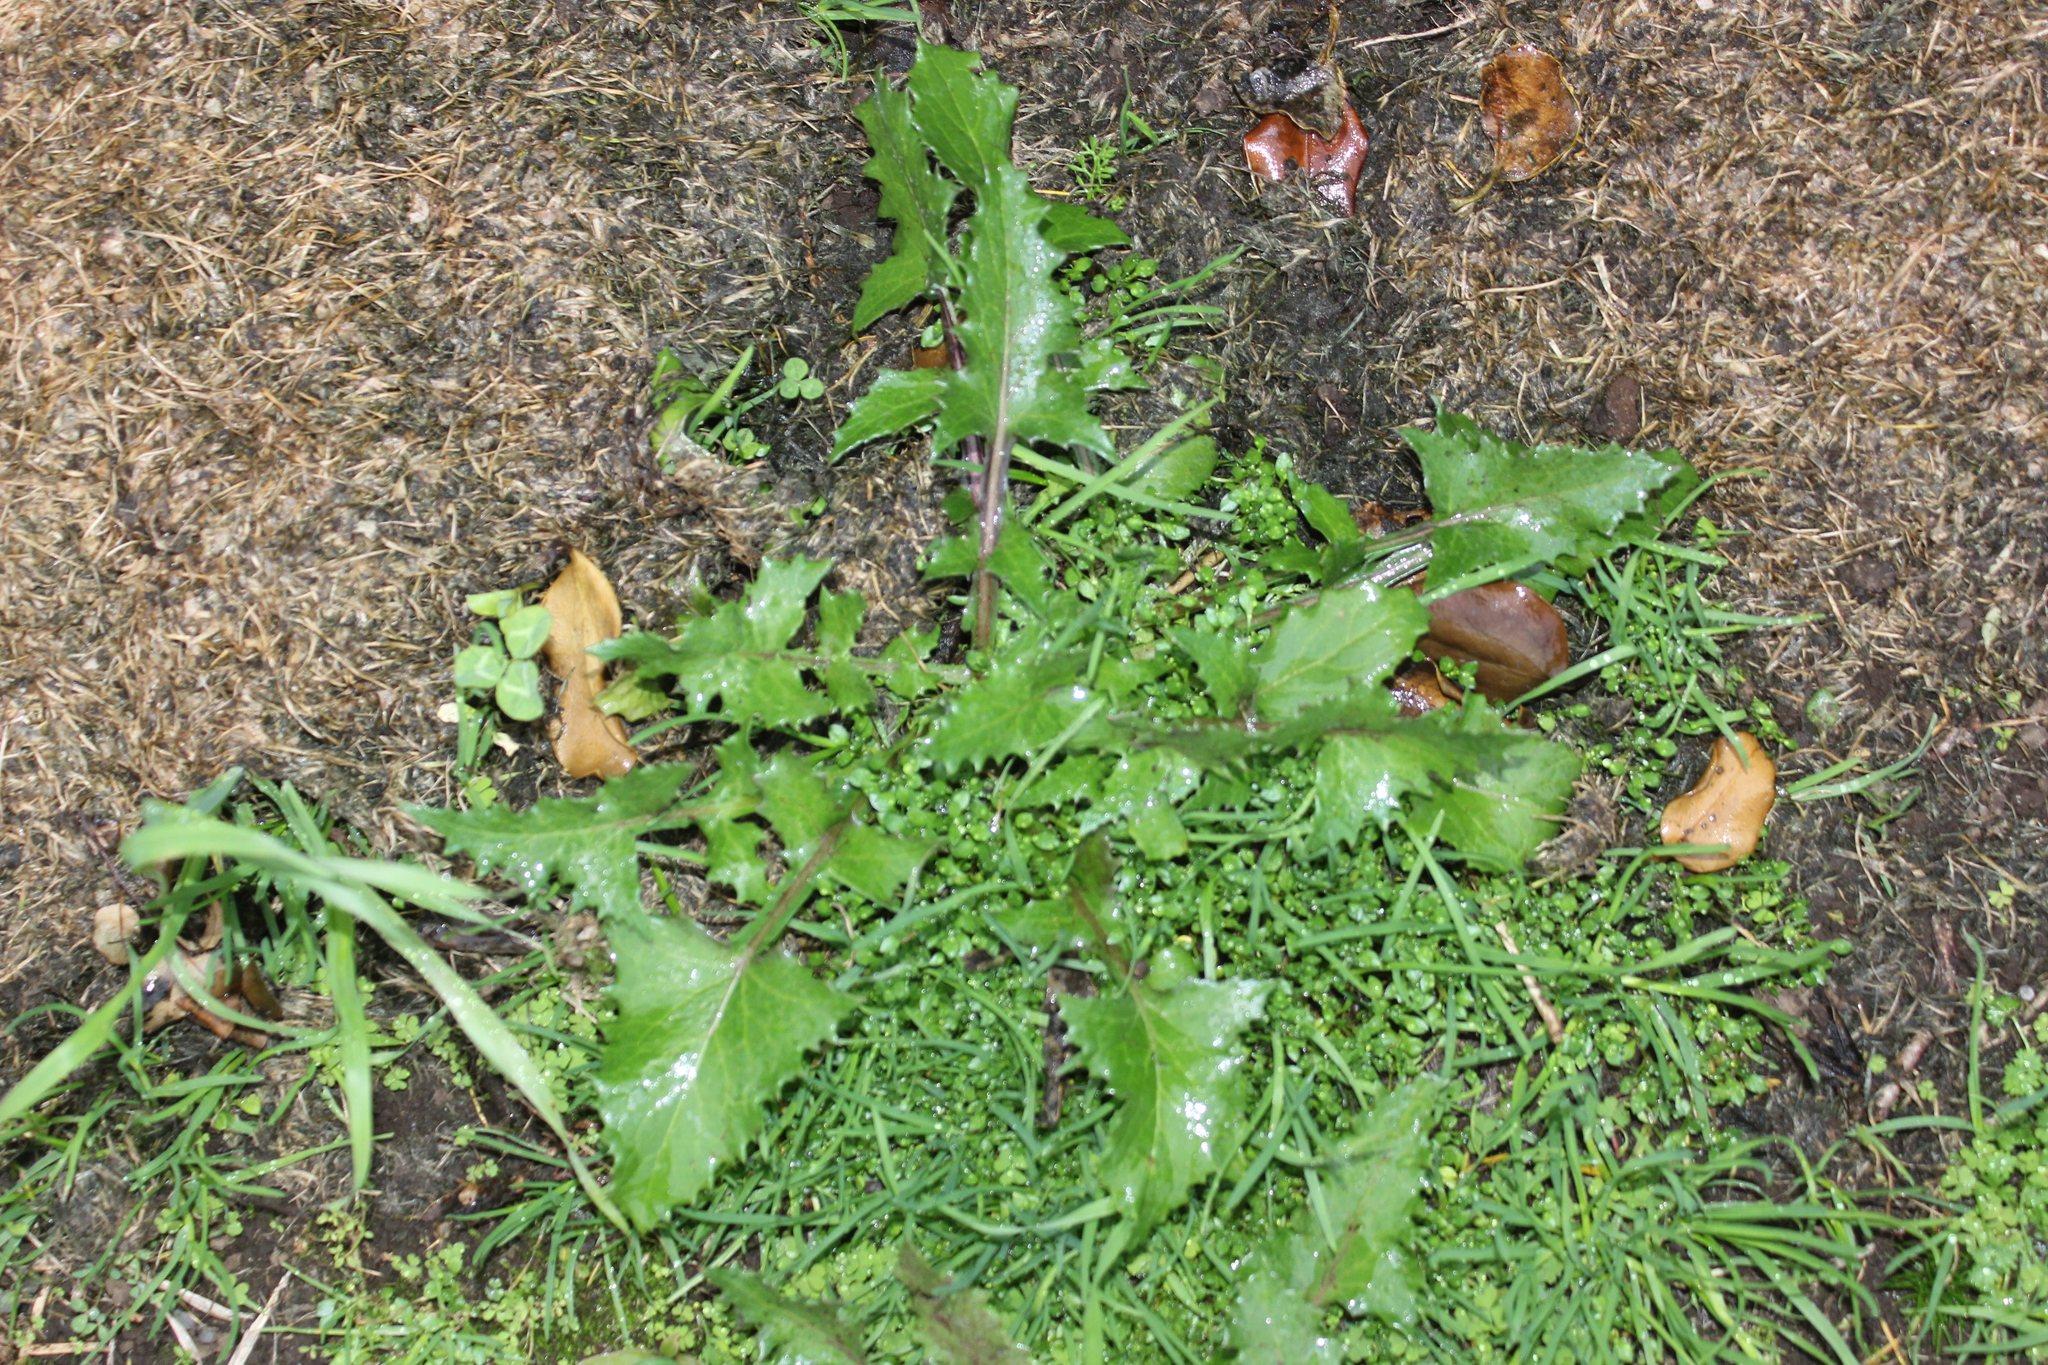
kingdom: Plantae
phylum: Tracheophyta
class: Magnoliopsida
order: Asterales
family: Asteraceae
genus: Sonchus
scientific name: Sonchus oleraceus
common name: Common sowthistle
